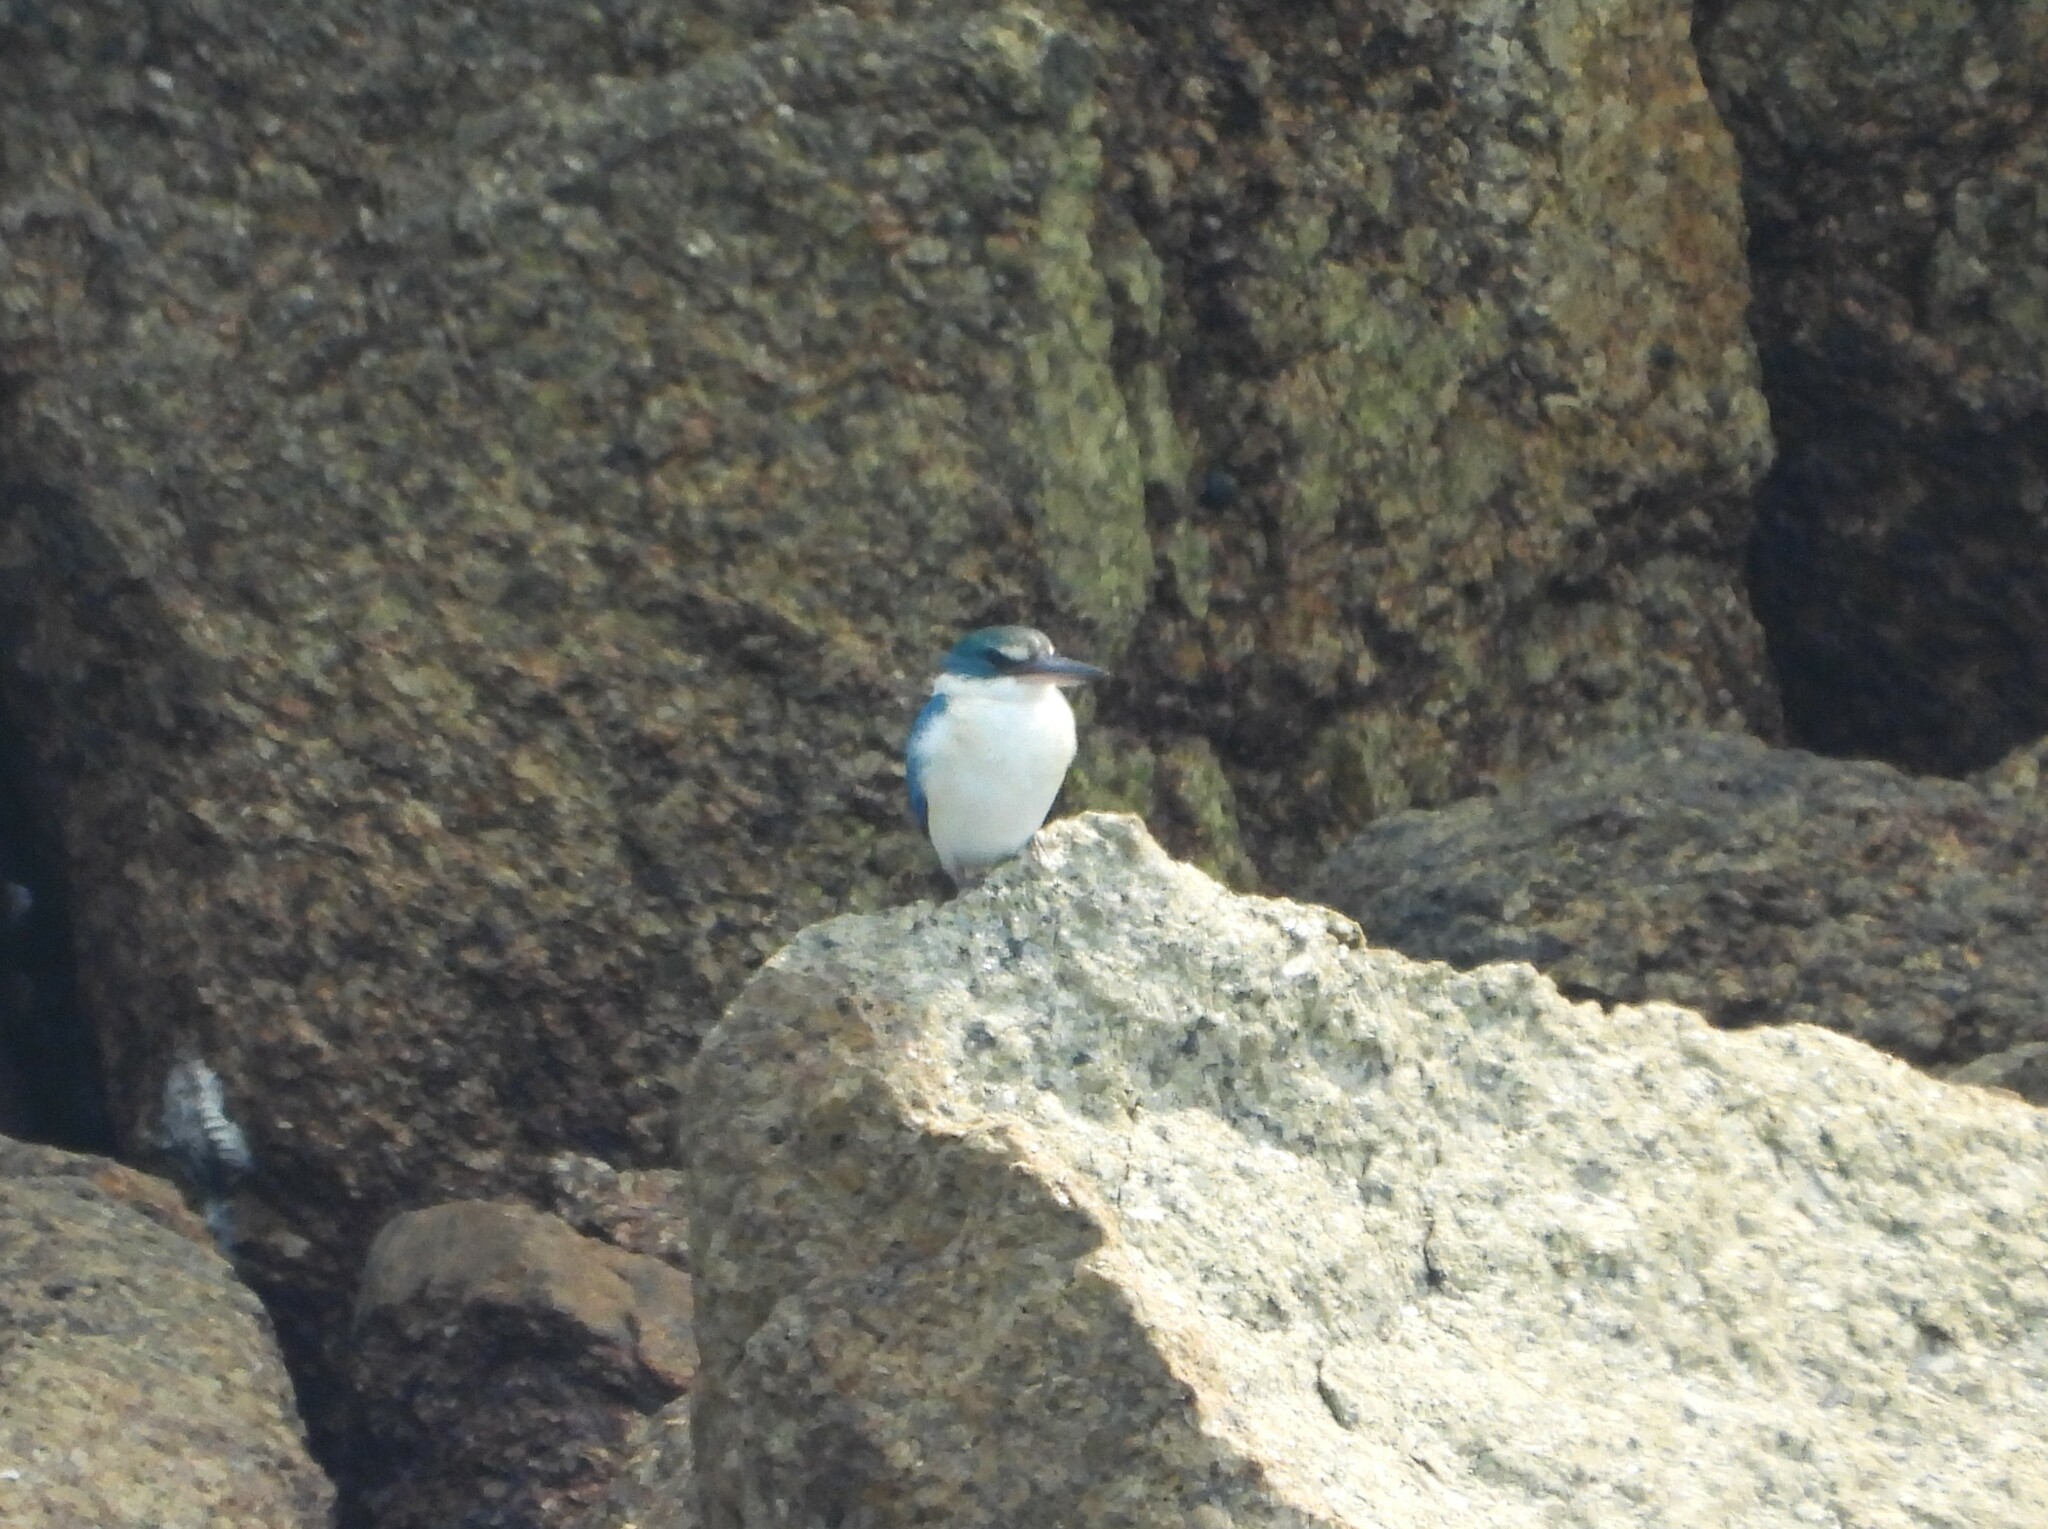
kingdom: Animalia
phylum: Chordata
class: Aves
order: Coraciiformes
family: Alcedinidae
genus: Todiramphus
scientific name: Todiramphus chloris
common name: Collared kingfisher
